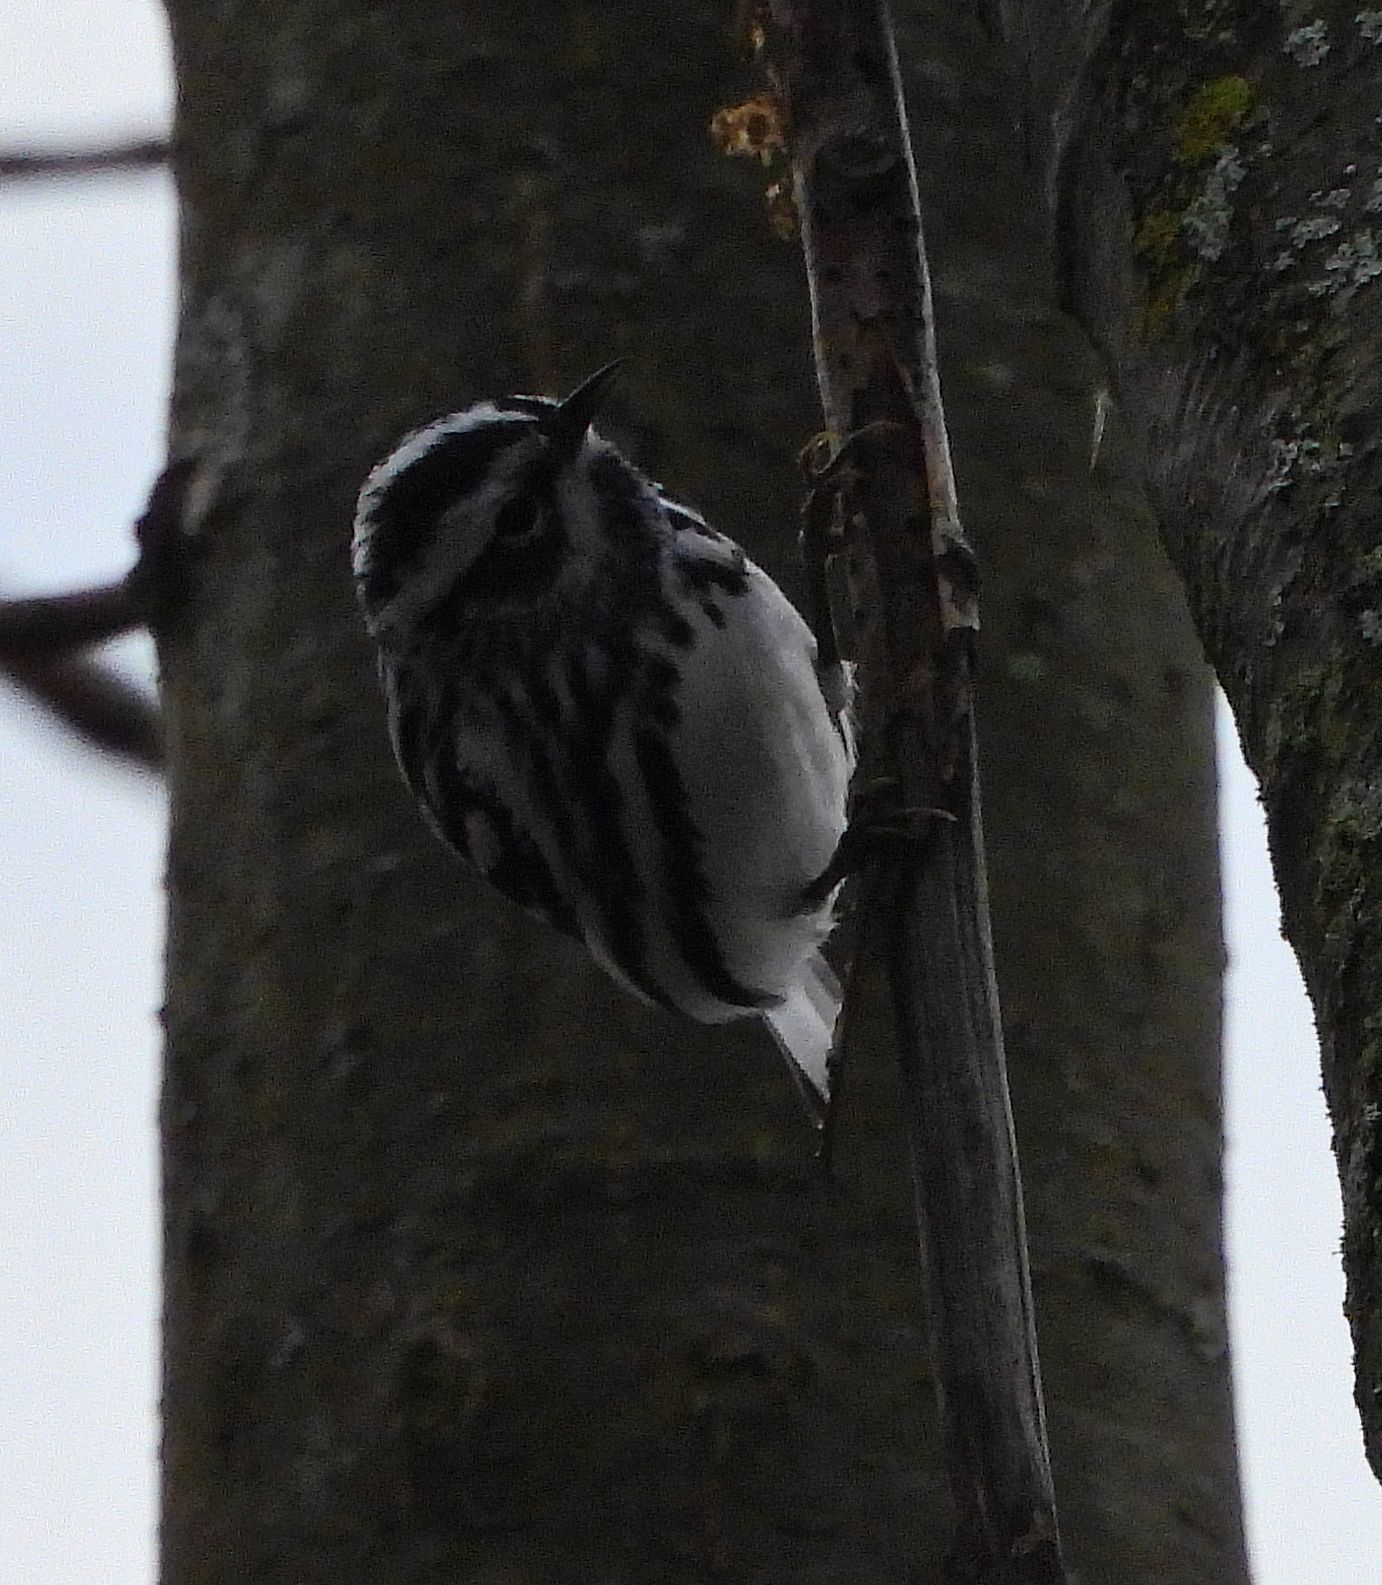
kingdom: Animalia
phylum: Chordata
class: Aves
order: Passeriformes
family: Parulidae
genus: Mniotilta
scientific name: Mniotilta varia
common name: Black-and-white warbler
